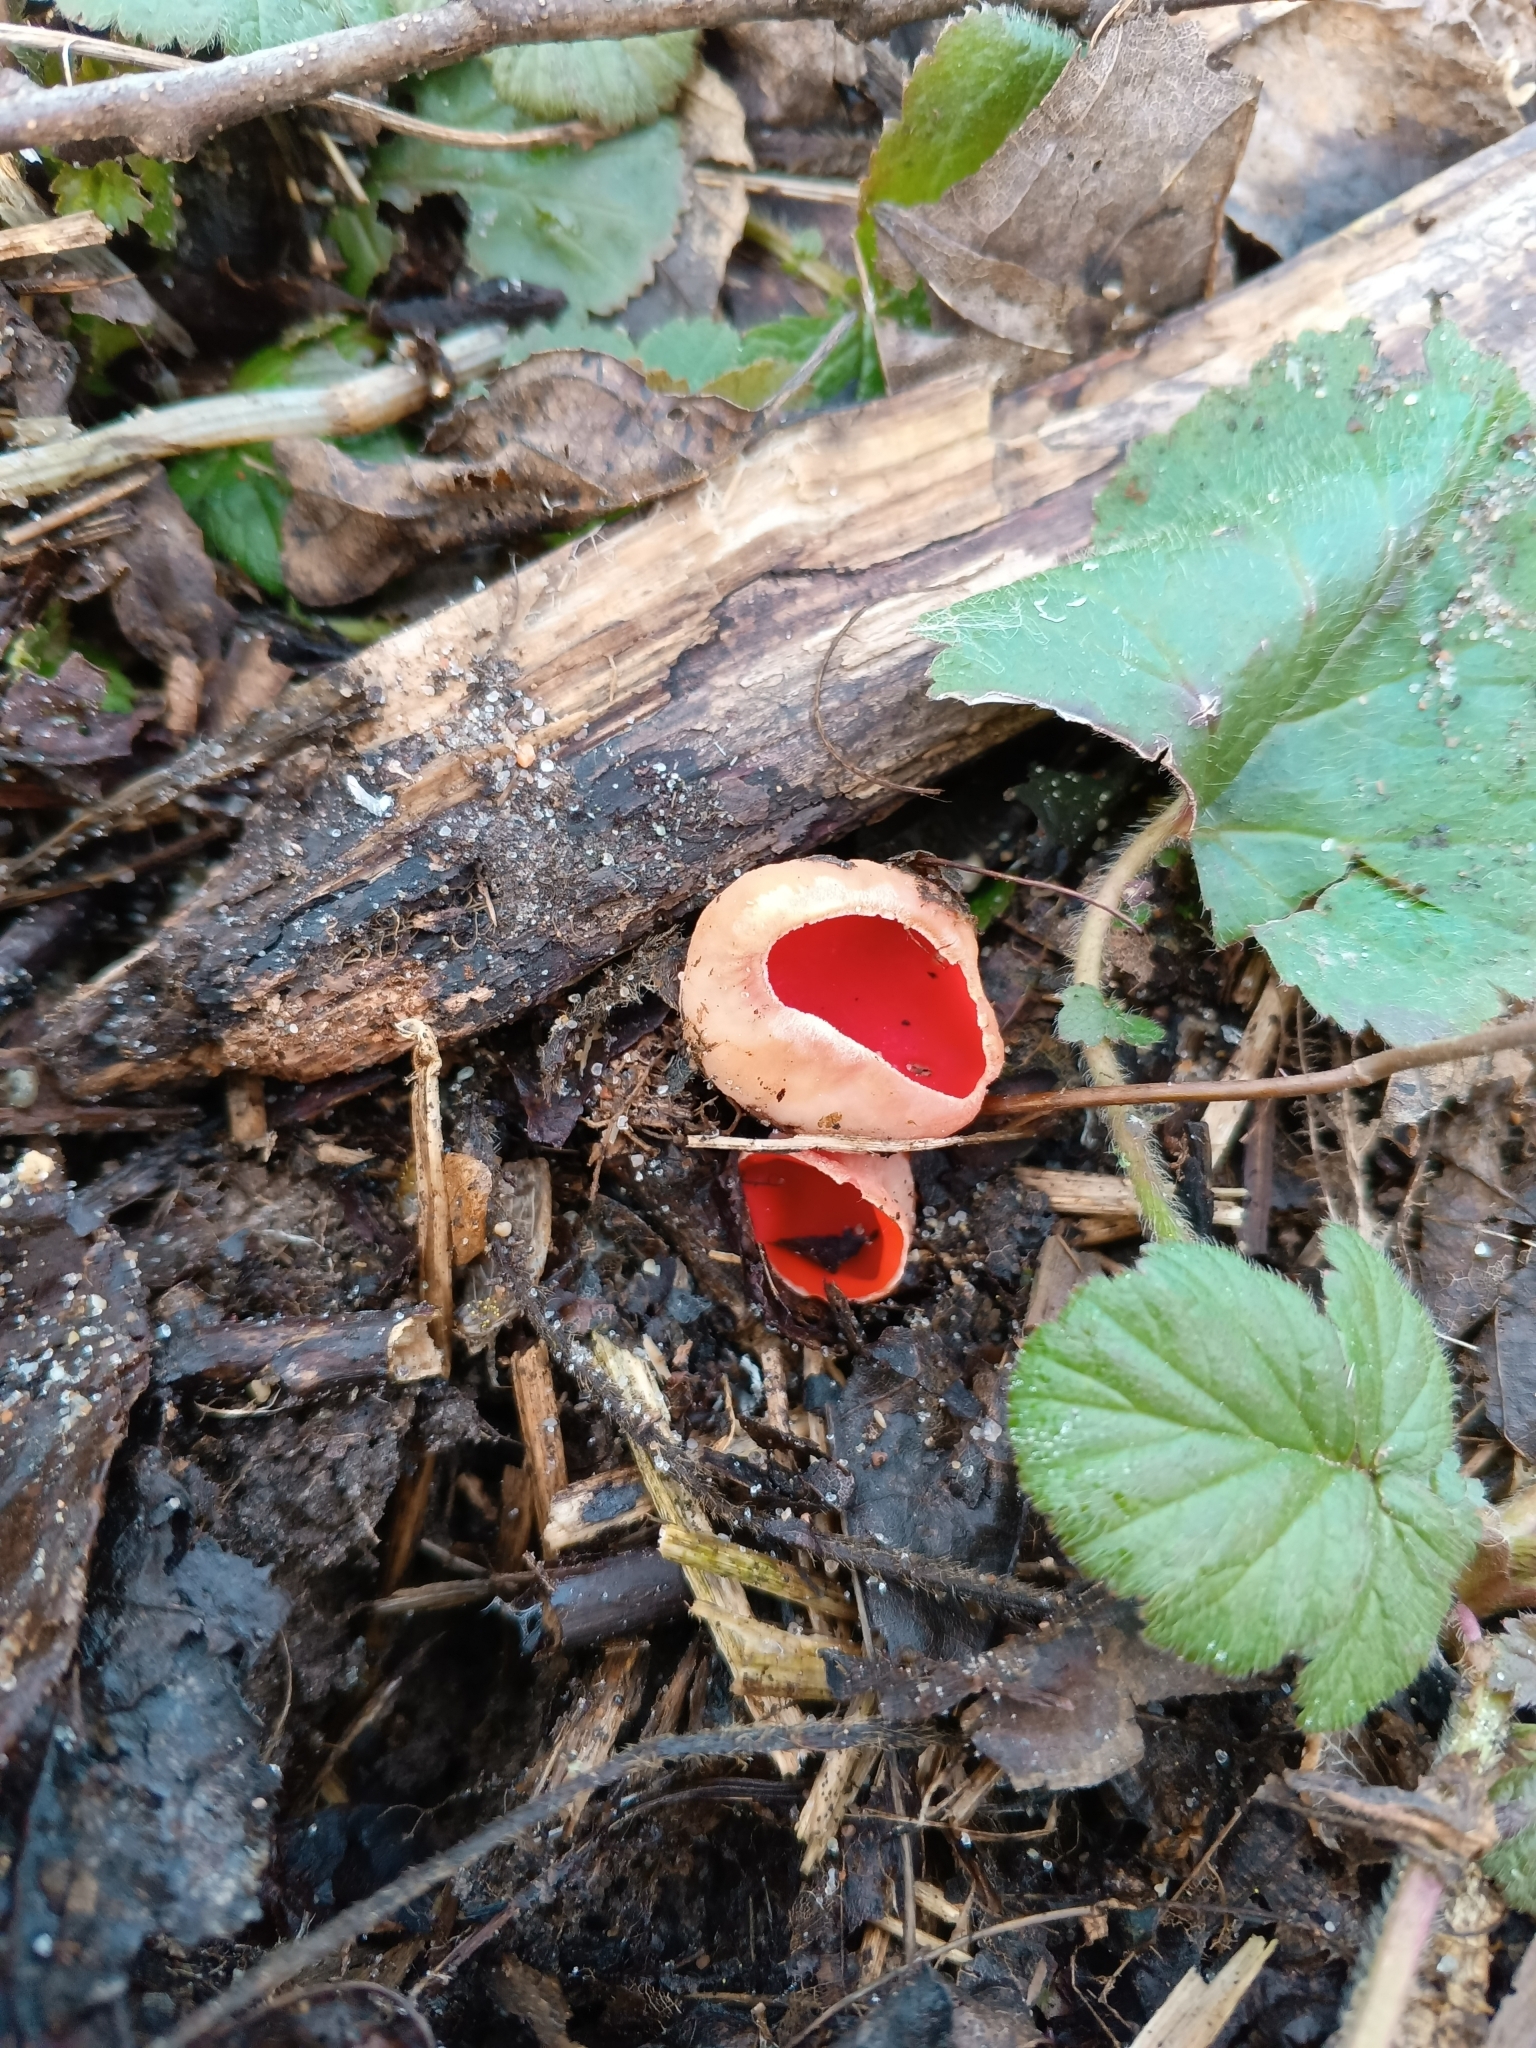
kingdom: Fungi
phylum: Ascomycota
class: Pezizomycetes
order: Pezizales
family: Sarcoscyphaceae
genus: Sarcoscypha
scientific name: Sarcoscypha austriaca
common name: Scarlet elfcup
